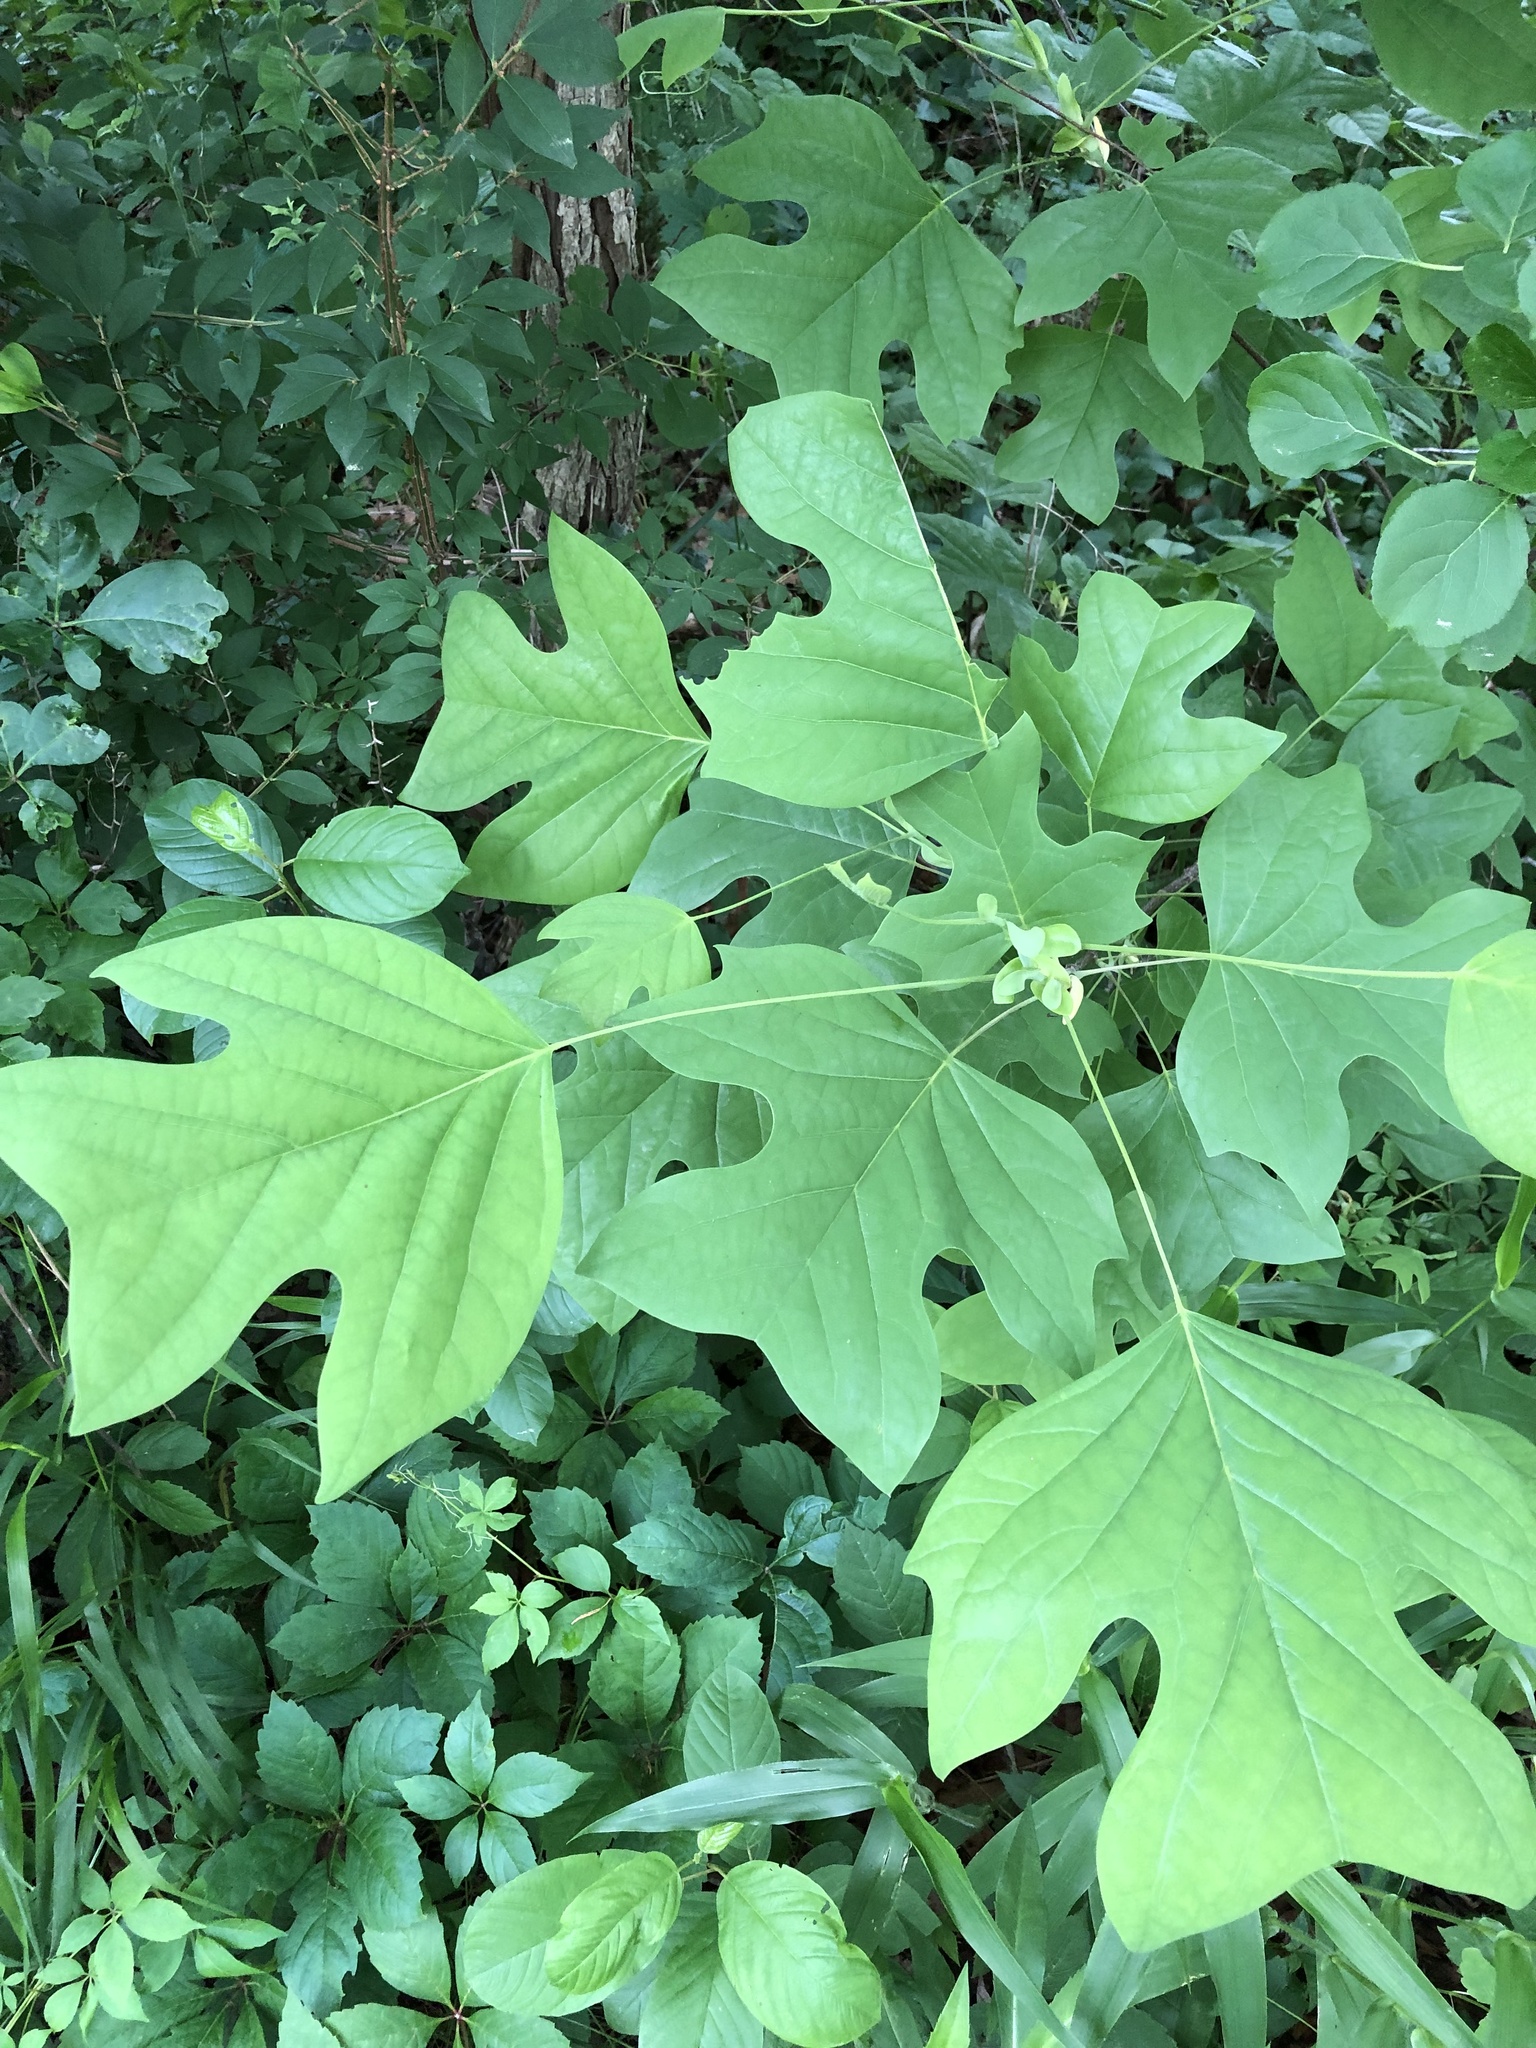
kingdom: Plantae
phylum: Tracheophyta
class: Magnoliopsida
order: Magnoliales
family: Magnoliaceae
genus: Liriodendron
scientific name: Liriodendron tulipifera
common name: Tulip tree
